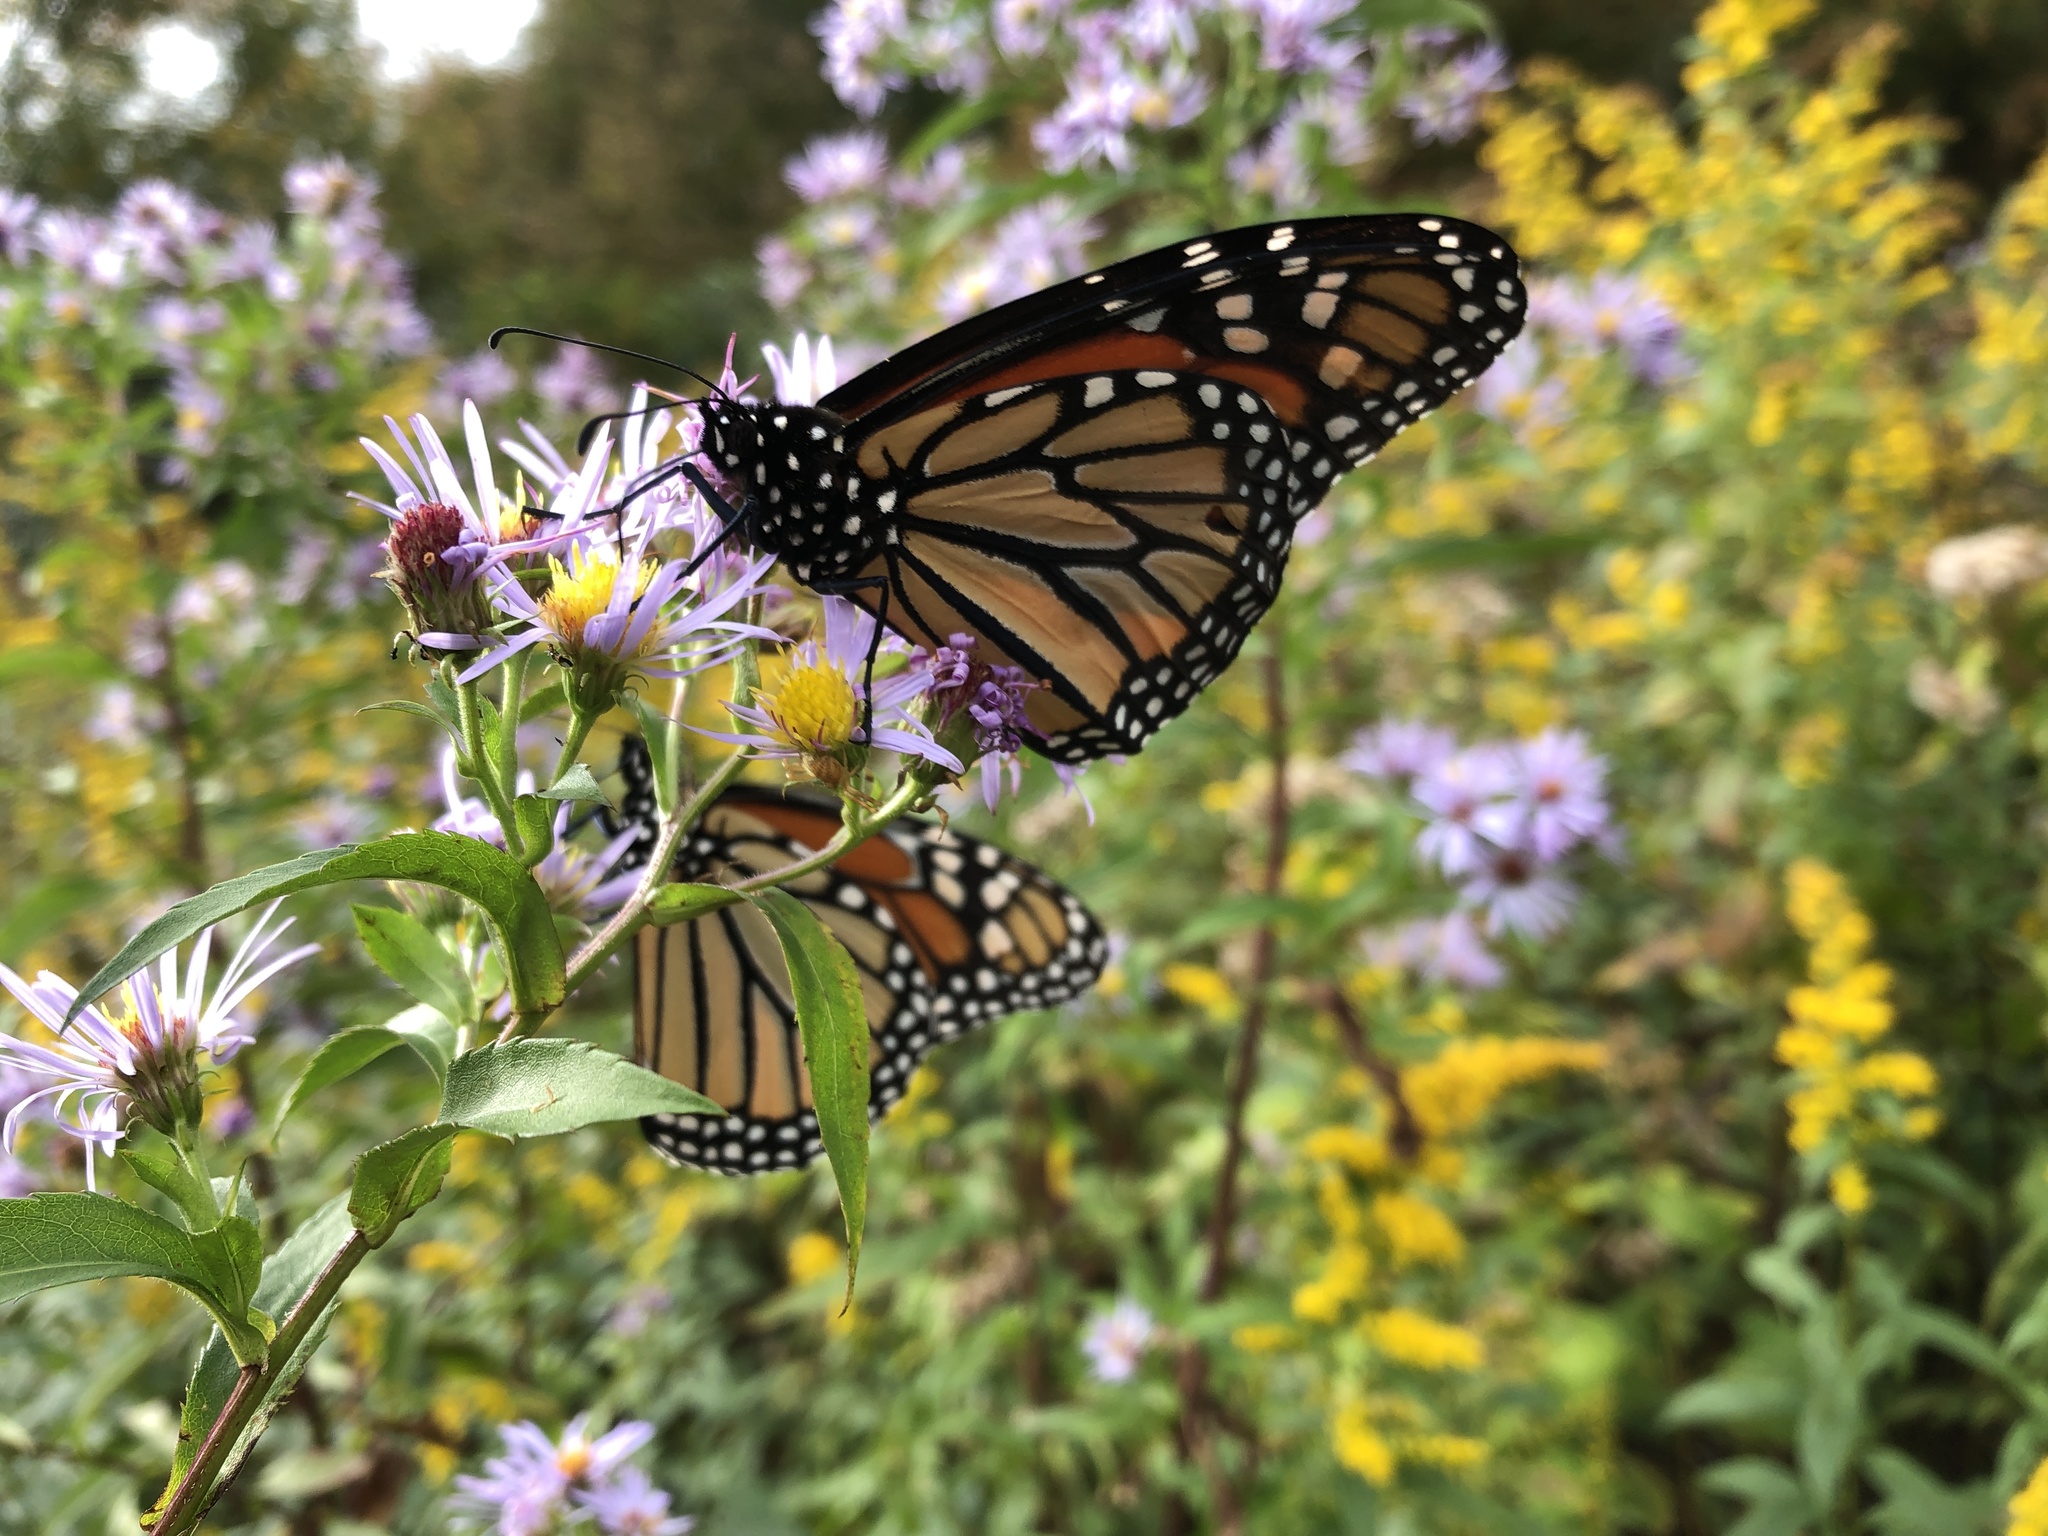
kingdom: Animalia
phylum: Arthropoda
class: Insecta
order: Lepidoptera
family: Nymphalidae
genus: Danaus
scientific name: Danaus plexippus
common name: Monarch
